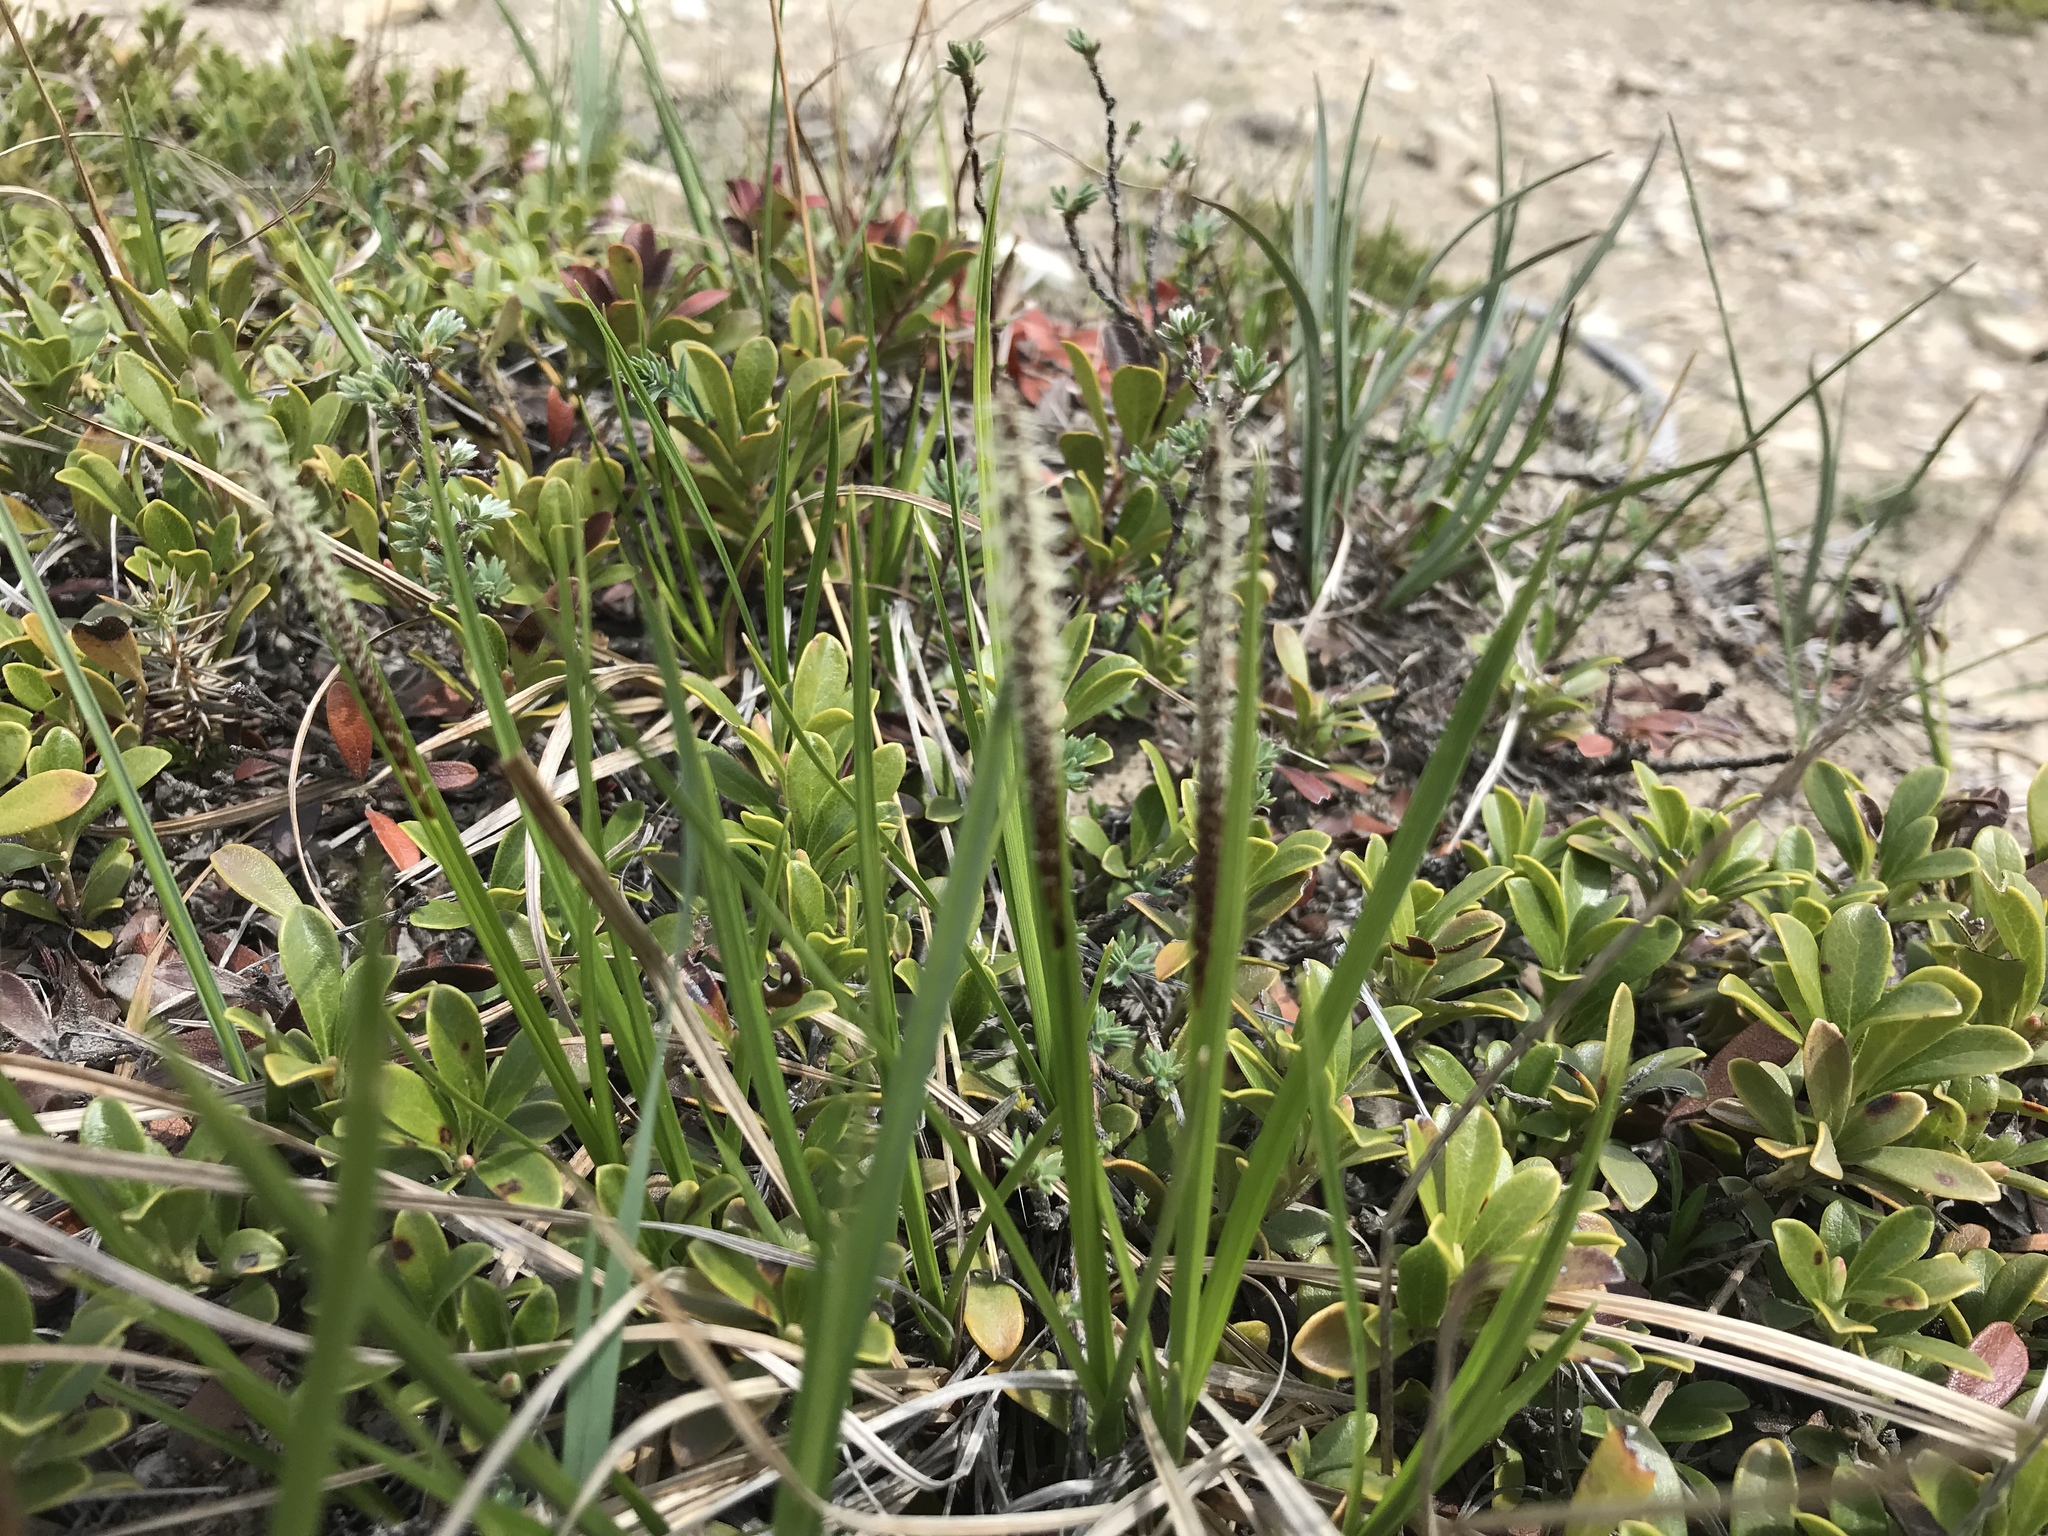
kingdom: Plantae
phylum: Tracheophyta
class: Liliopsida
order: Poales
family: Cyperaceae
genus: Carex
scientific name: Carex scirpoidea
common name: Canada single-spike sedge
